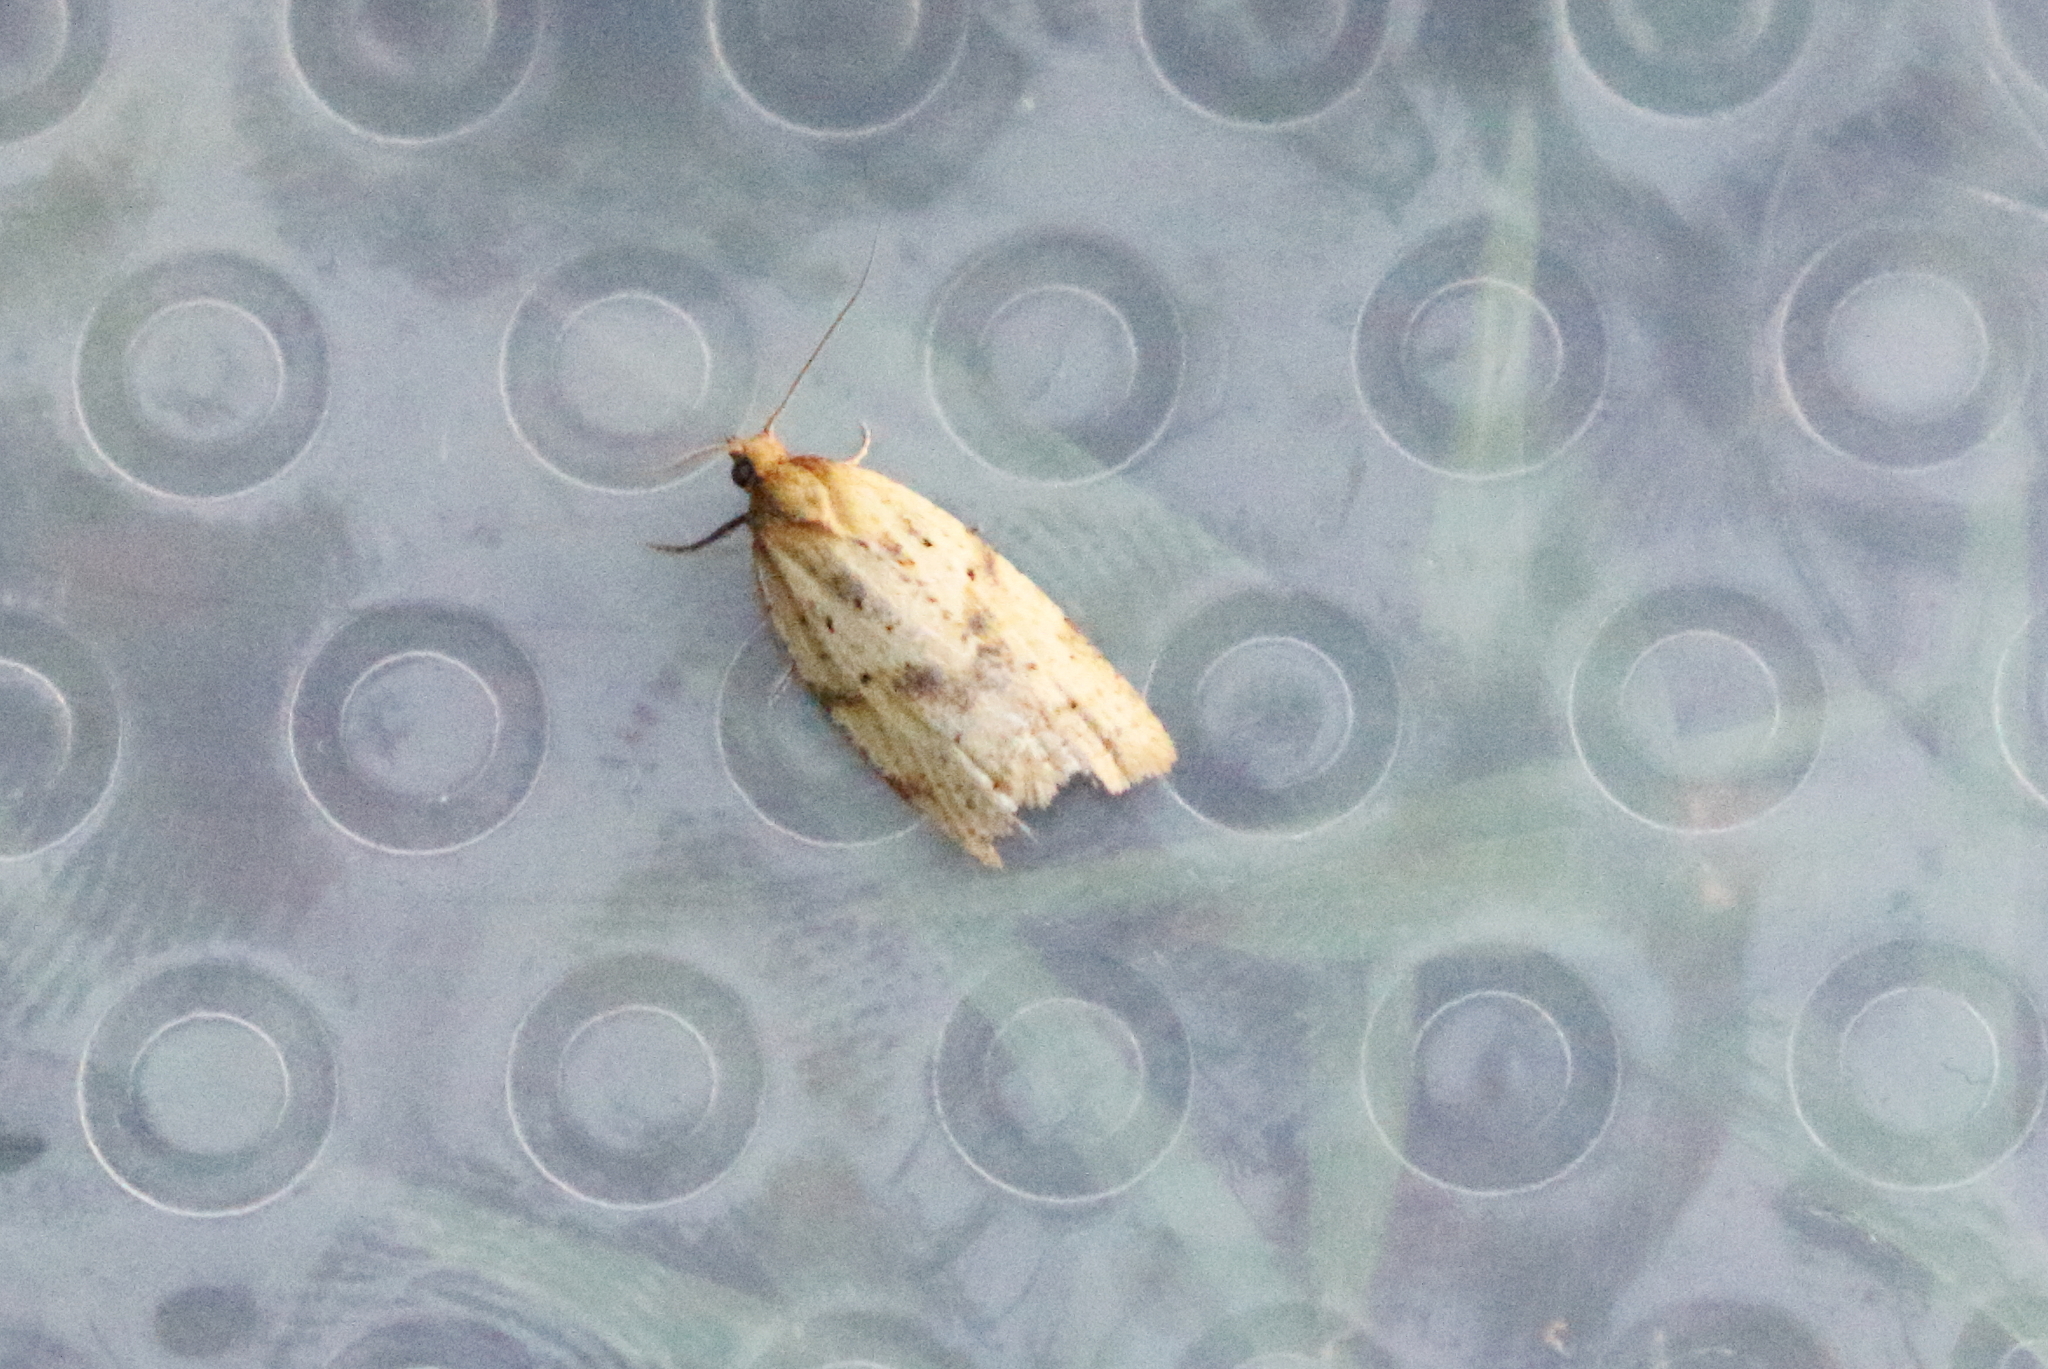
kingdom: Animalia
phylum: Arthropoda
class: Insecta
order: Lepidoptera
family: Tortricidae
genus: Clepsis
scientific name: Clepsis
